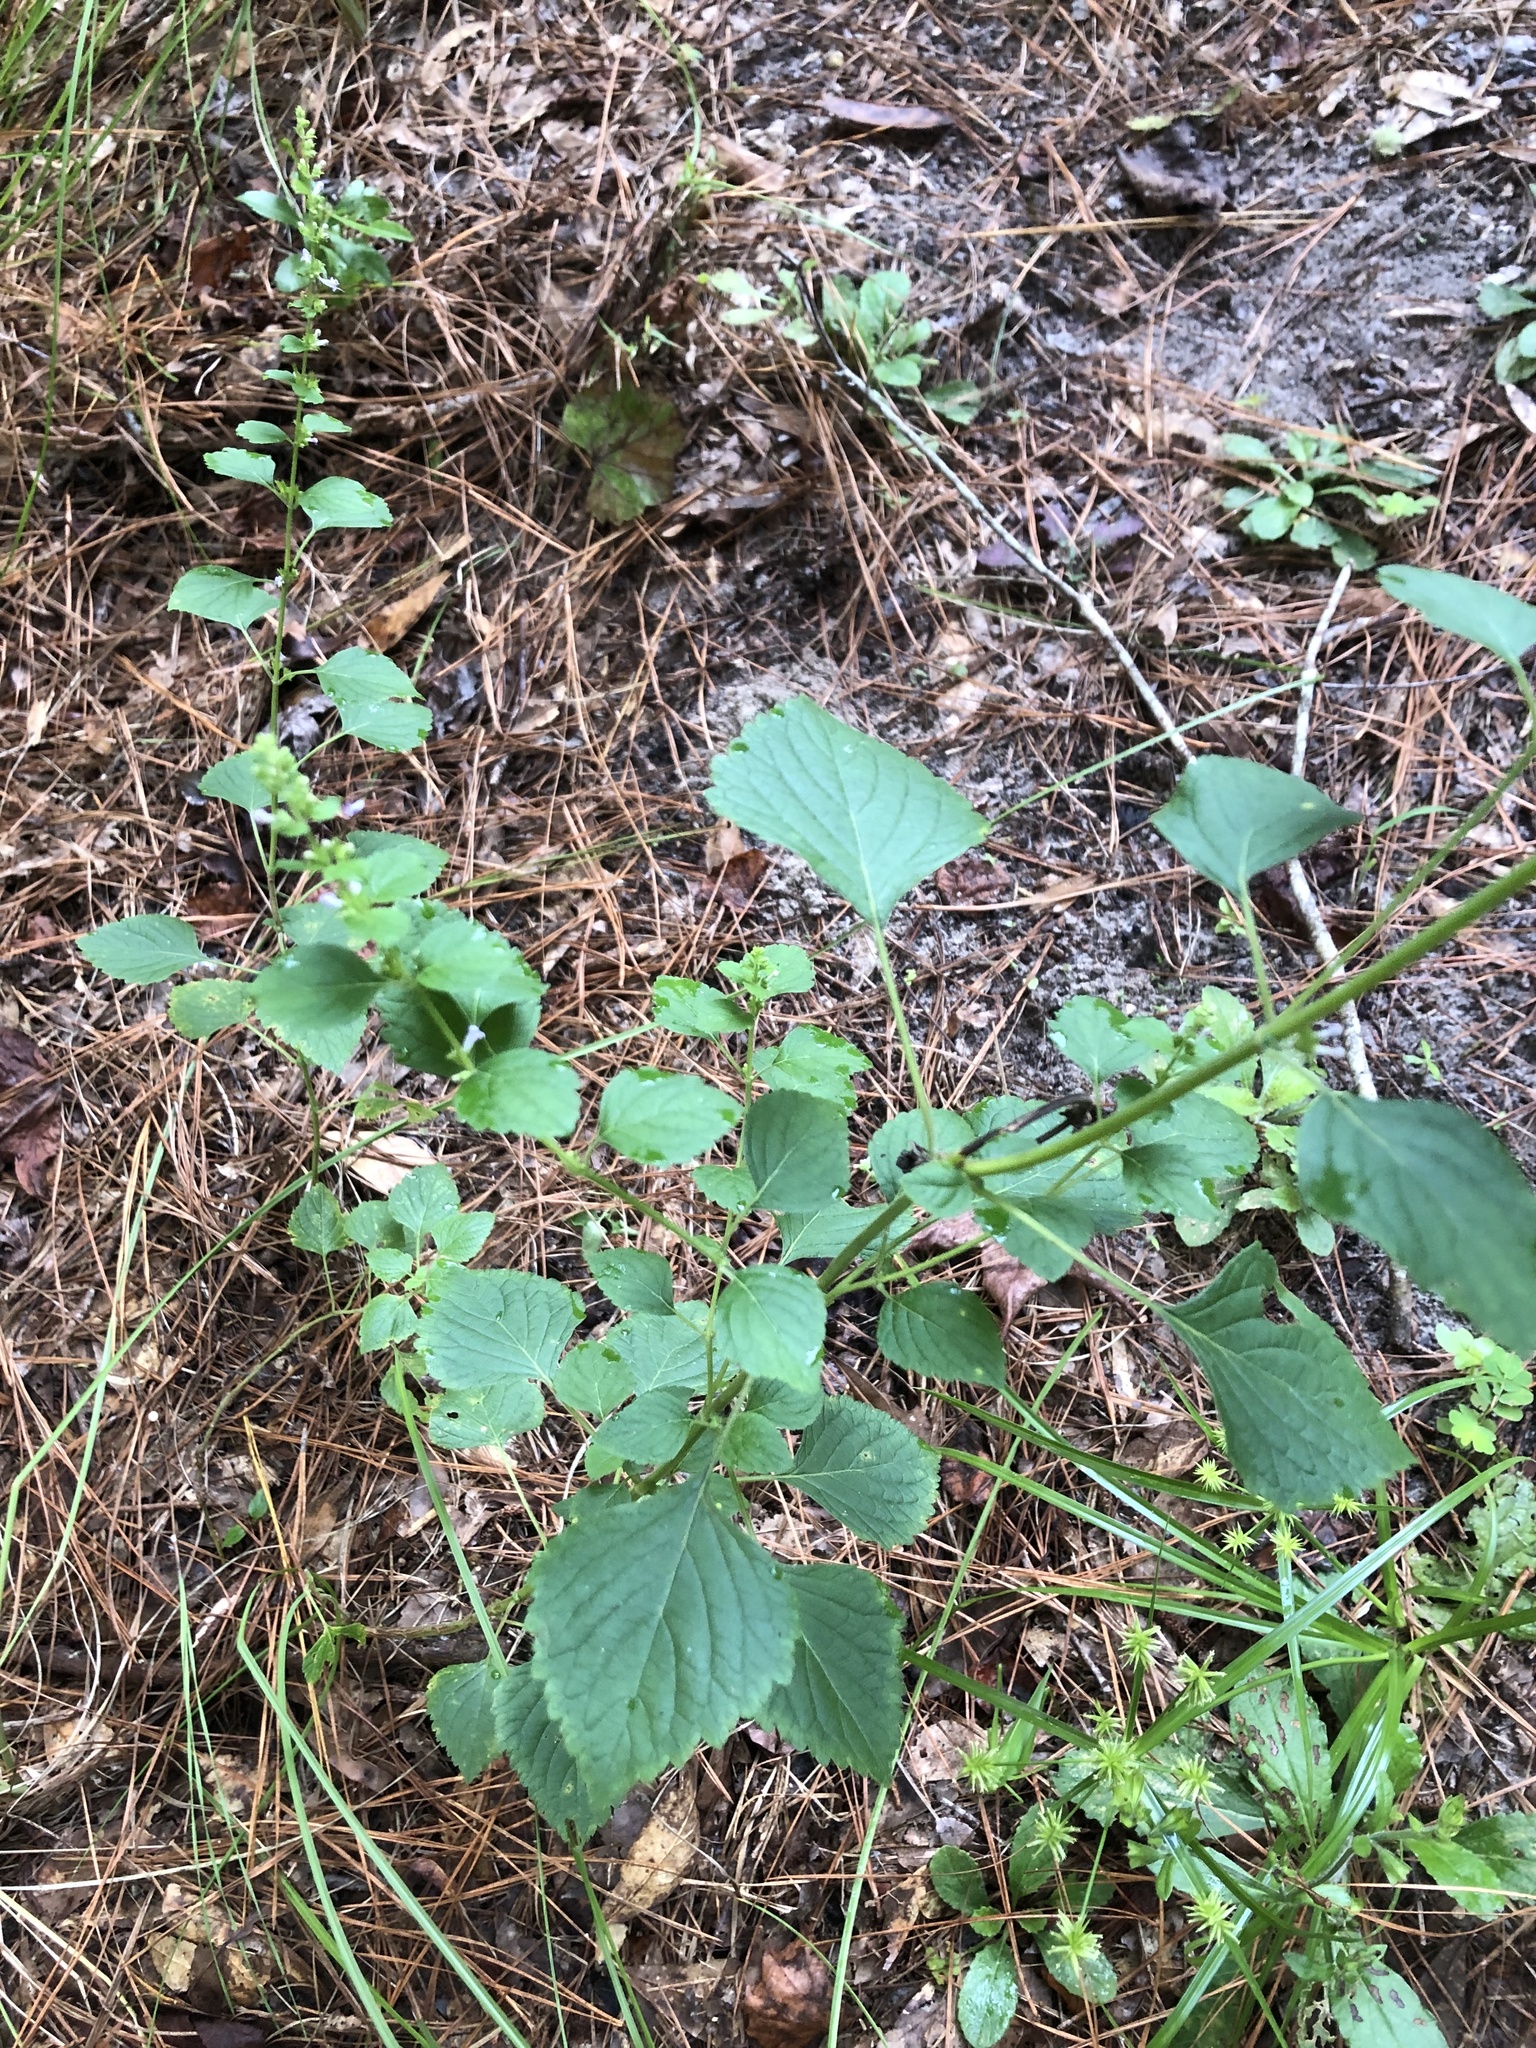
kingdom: Plantae
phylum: Tracheophyta
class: Magnoliopsida
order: Lamiales
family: Lamiaceae
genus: Cantinoa
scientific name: Cantinoa mutabilis
